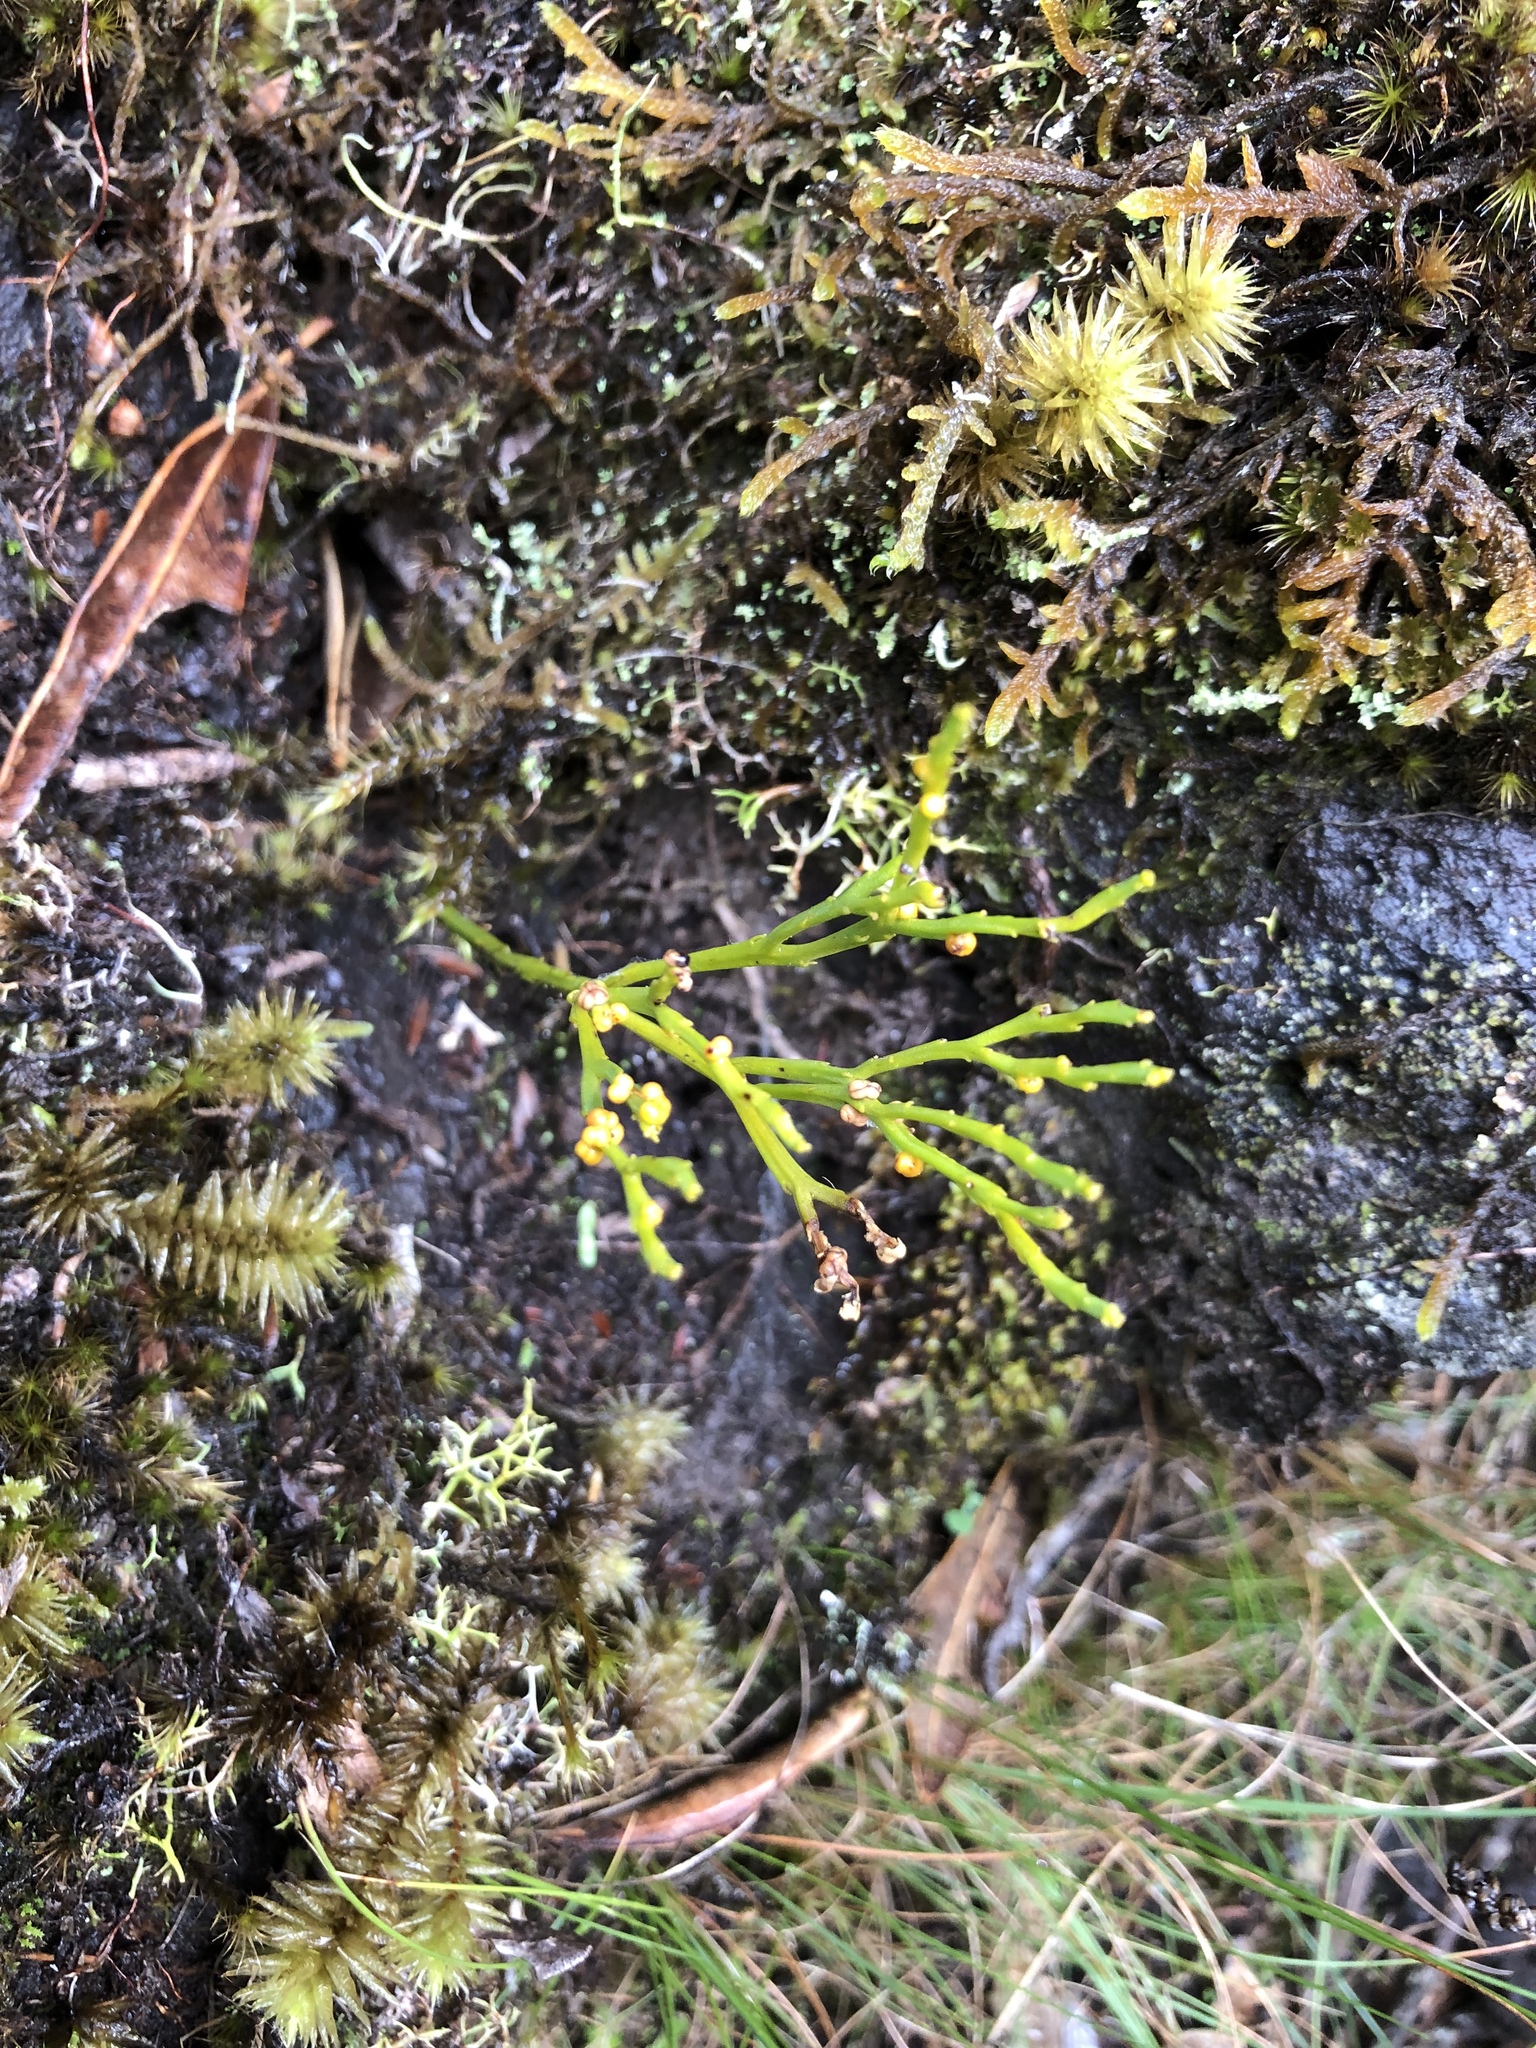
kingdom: Plantae
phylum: Tracheophyta
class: Polypodiopsida
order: Psilotales
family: Psilotaceae
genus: Psilotum
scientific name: Psilotum nudum
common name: Skeleton fork fern
